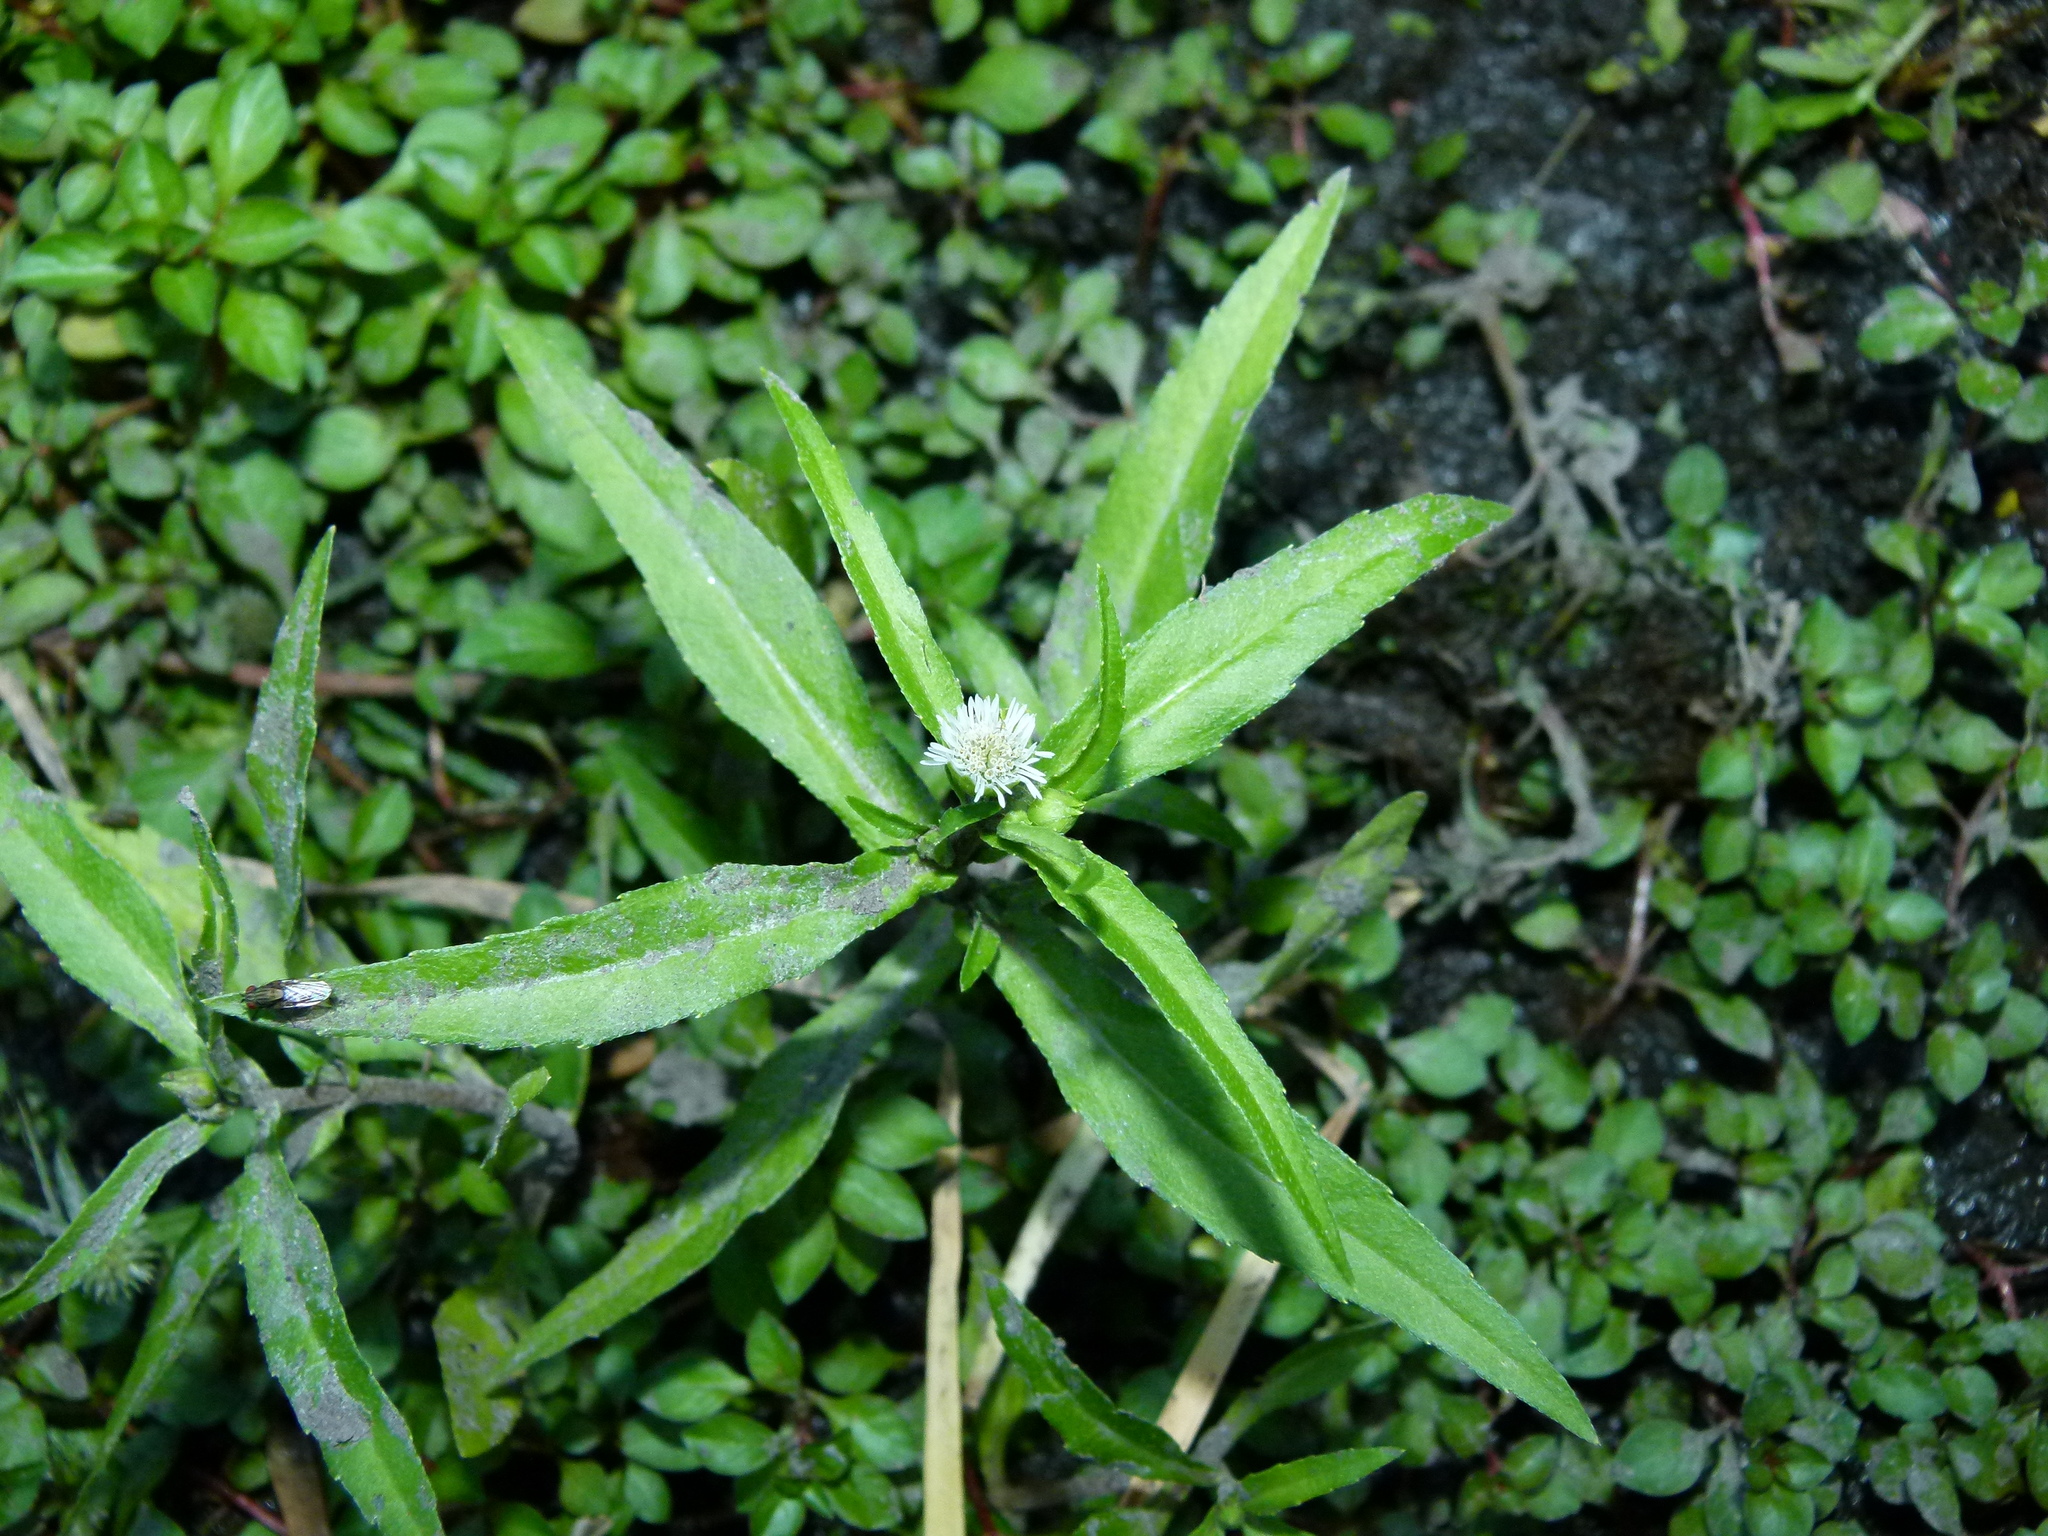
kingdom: Plantae
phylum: Tracheophyta
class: Magnoliopsida
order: Asterales
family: Asteraceae
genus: Eclipta
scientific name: Eclipta prostrata
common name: False daisy
